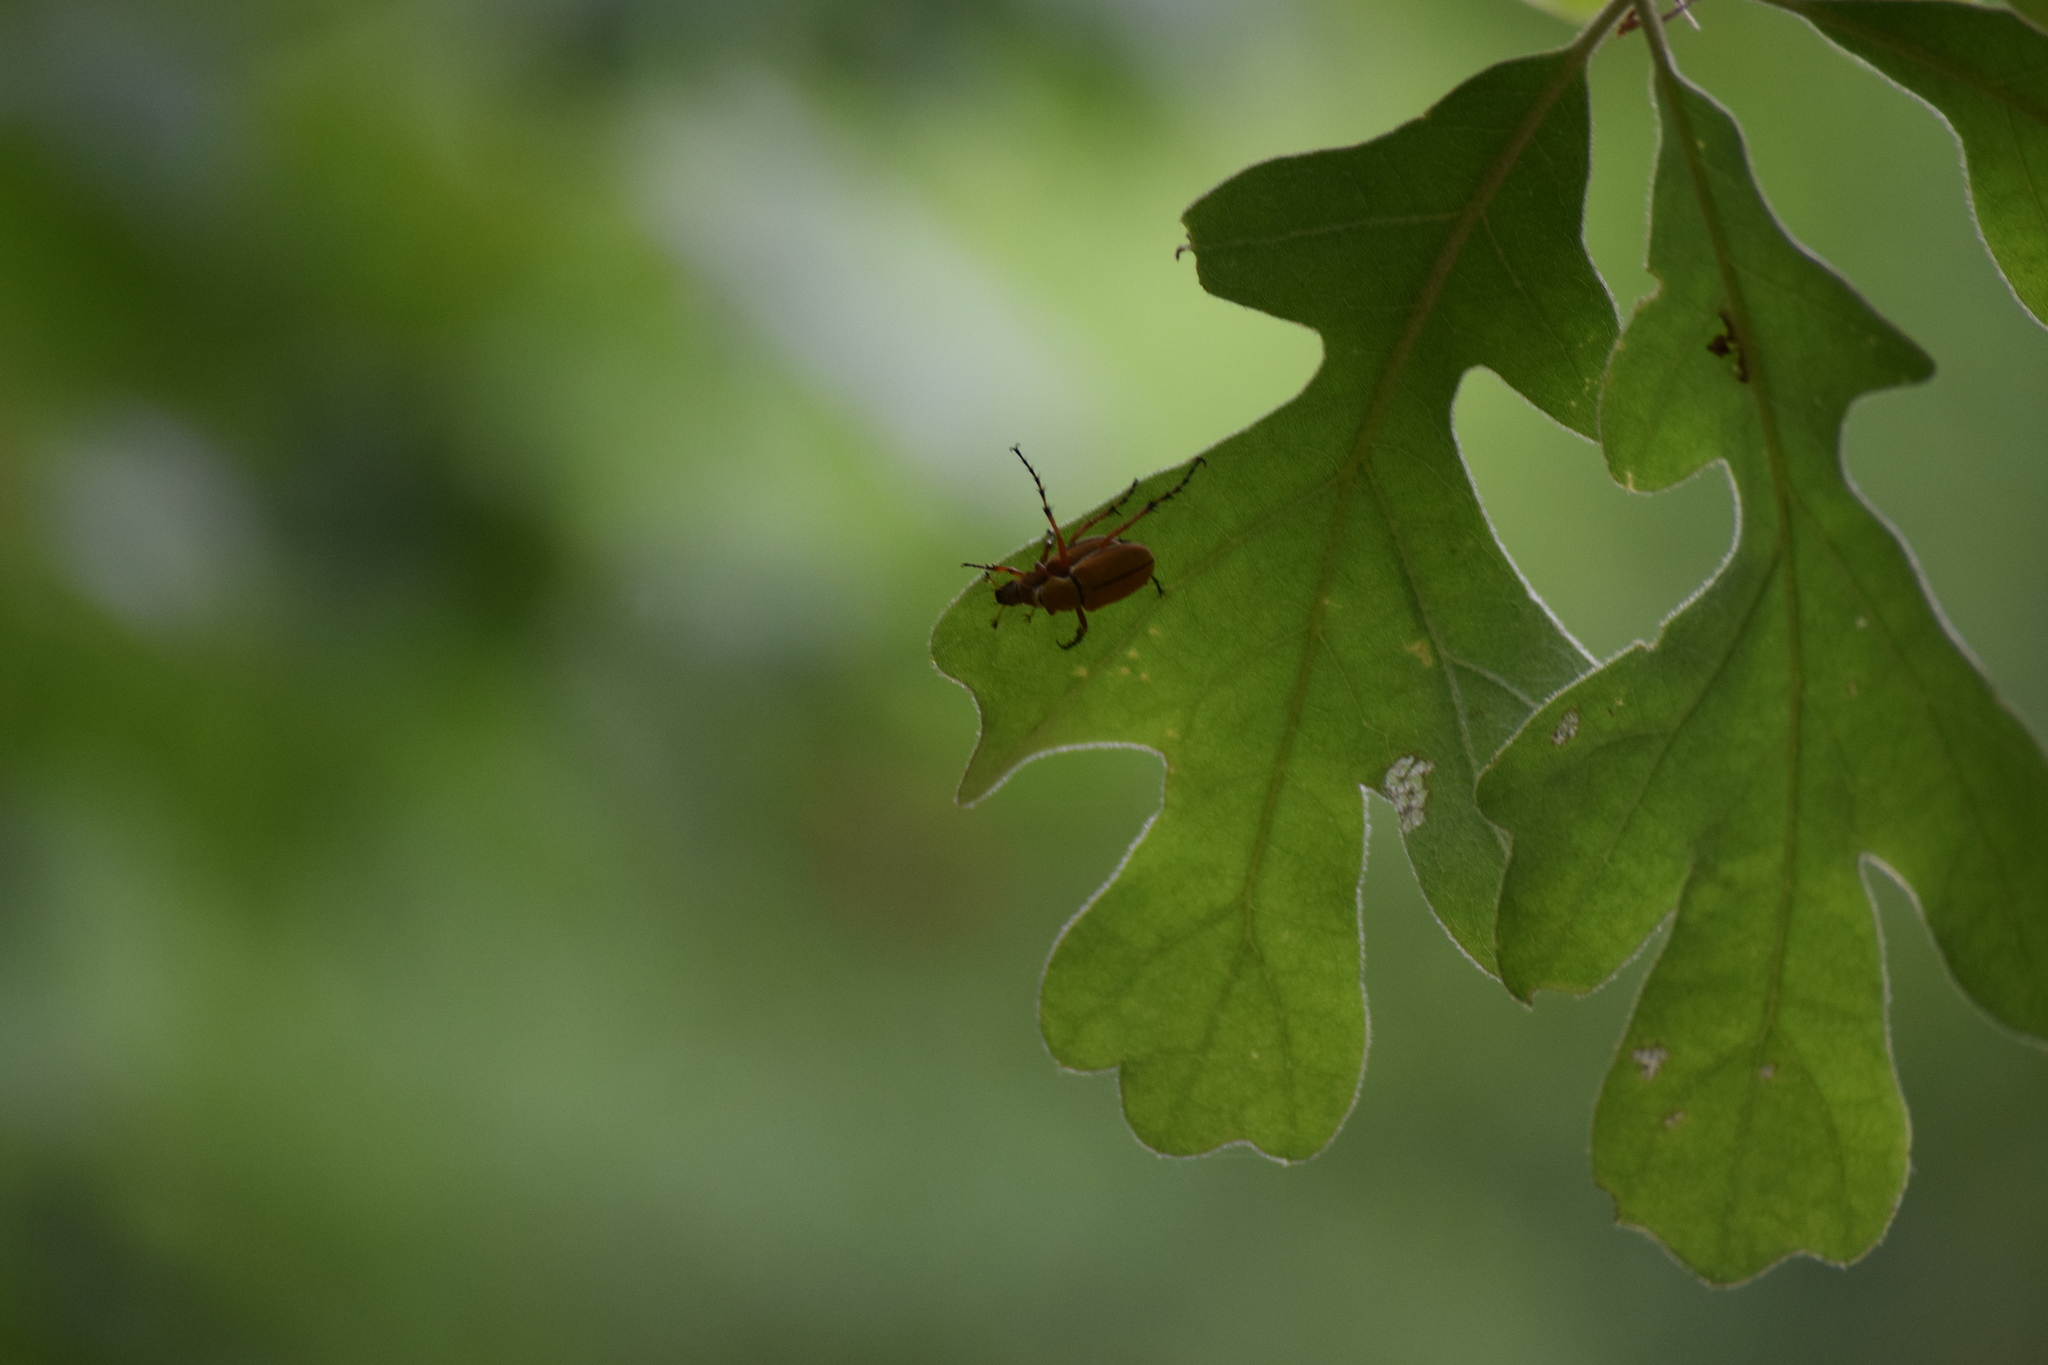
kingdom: Animalia
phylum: Arthropoda
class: Insecta
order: Coleoptera
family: Scarabaeidae
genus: Macrodactylus
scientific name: Macrodactylus subspinosus
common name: American rose chafer
